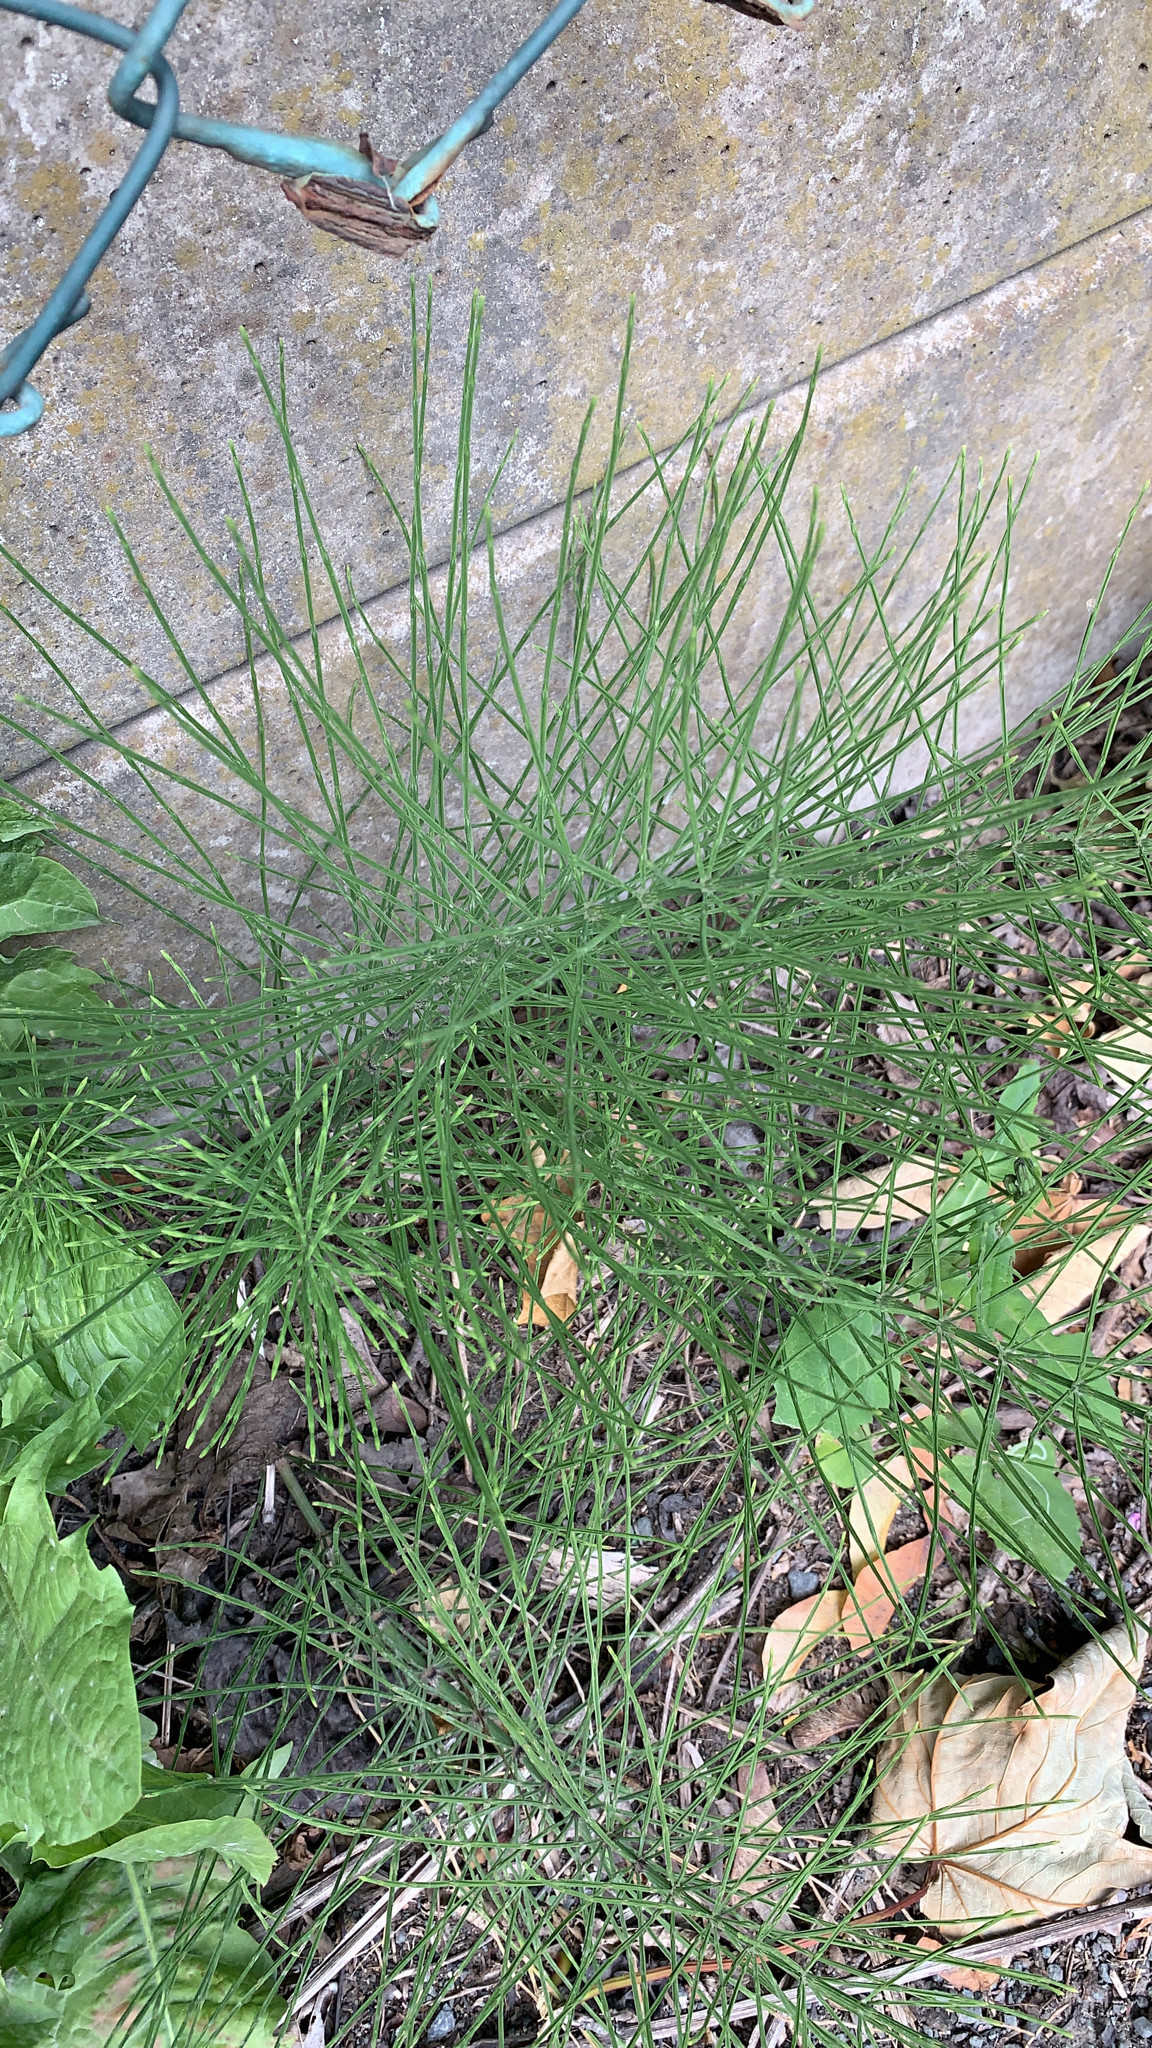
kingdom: Plantae
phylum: Tracheophyta
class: Polypodiopsida
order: Equisetales
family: Equisetaceae
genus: Equisetum
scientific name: Equisetum arvense
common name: Field horsetail
